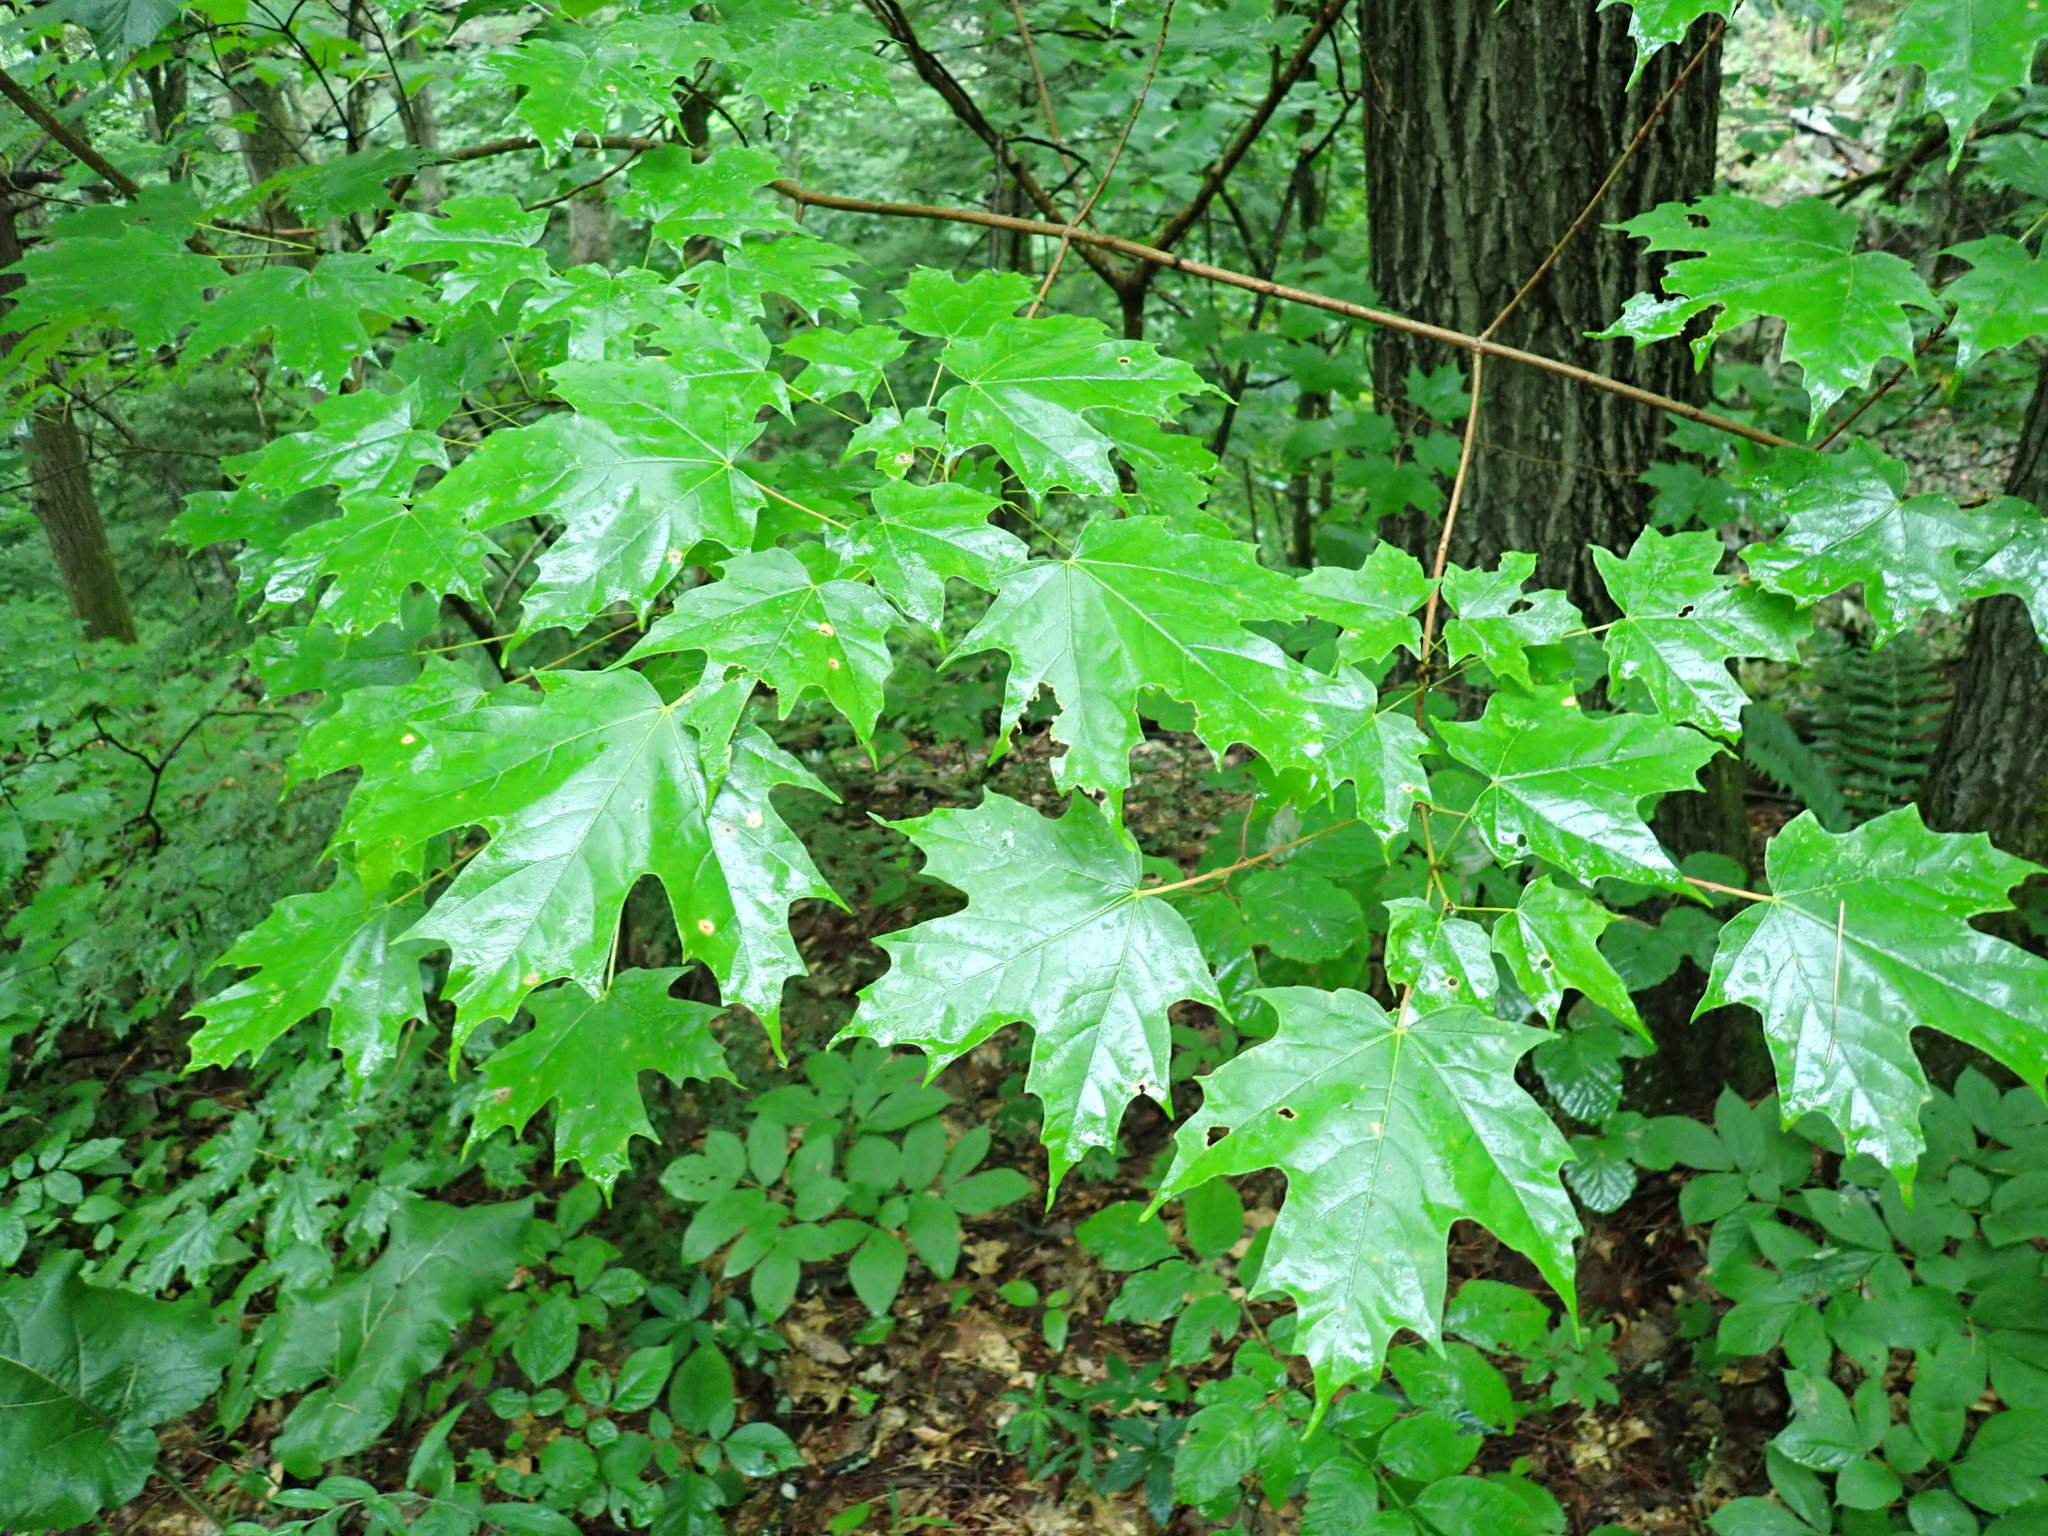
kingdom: Plantae
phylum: Tracheophyta
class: Magnoliopsida
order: Sapindales
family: Sapindaceae
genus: Acer
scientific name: Acer saccharum
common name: Sugar maple
